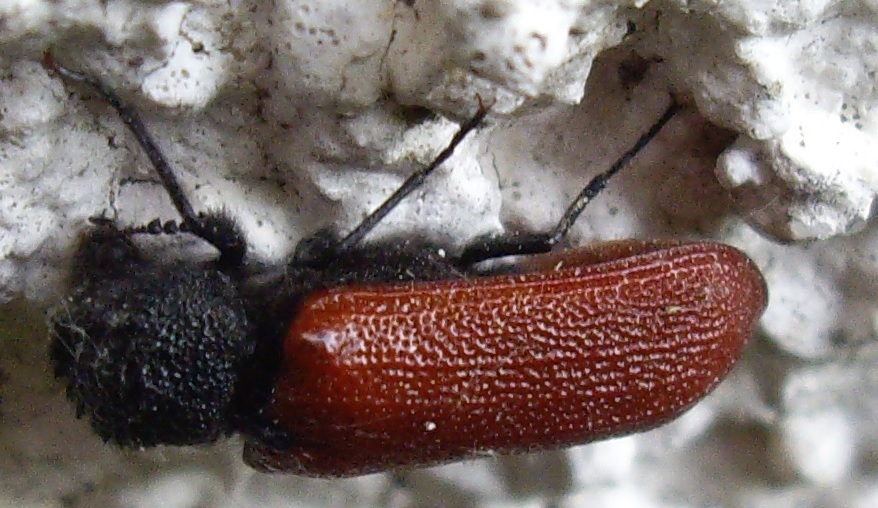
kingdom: Animalia
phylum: Arthropoda
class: Insecta
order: Coleoptera
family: Bostrichidae
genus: Bostrichus
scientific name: Bostrichus capucinus
